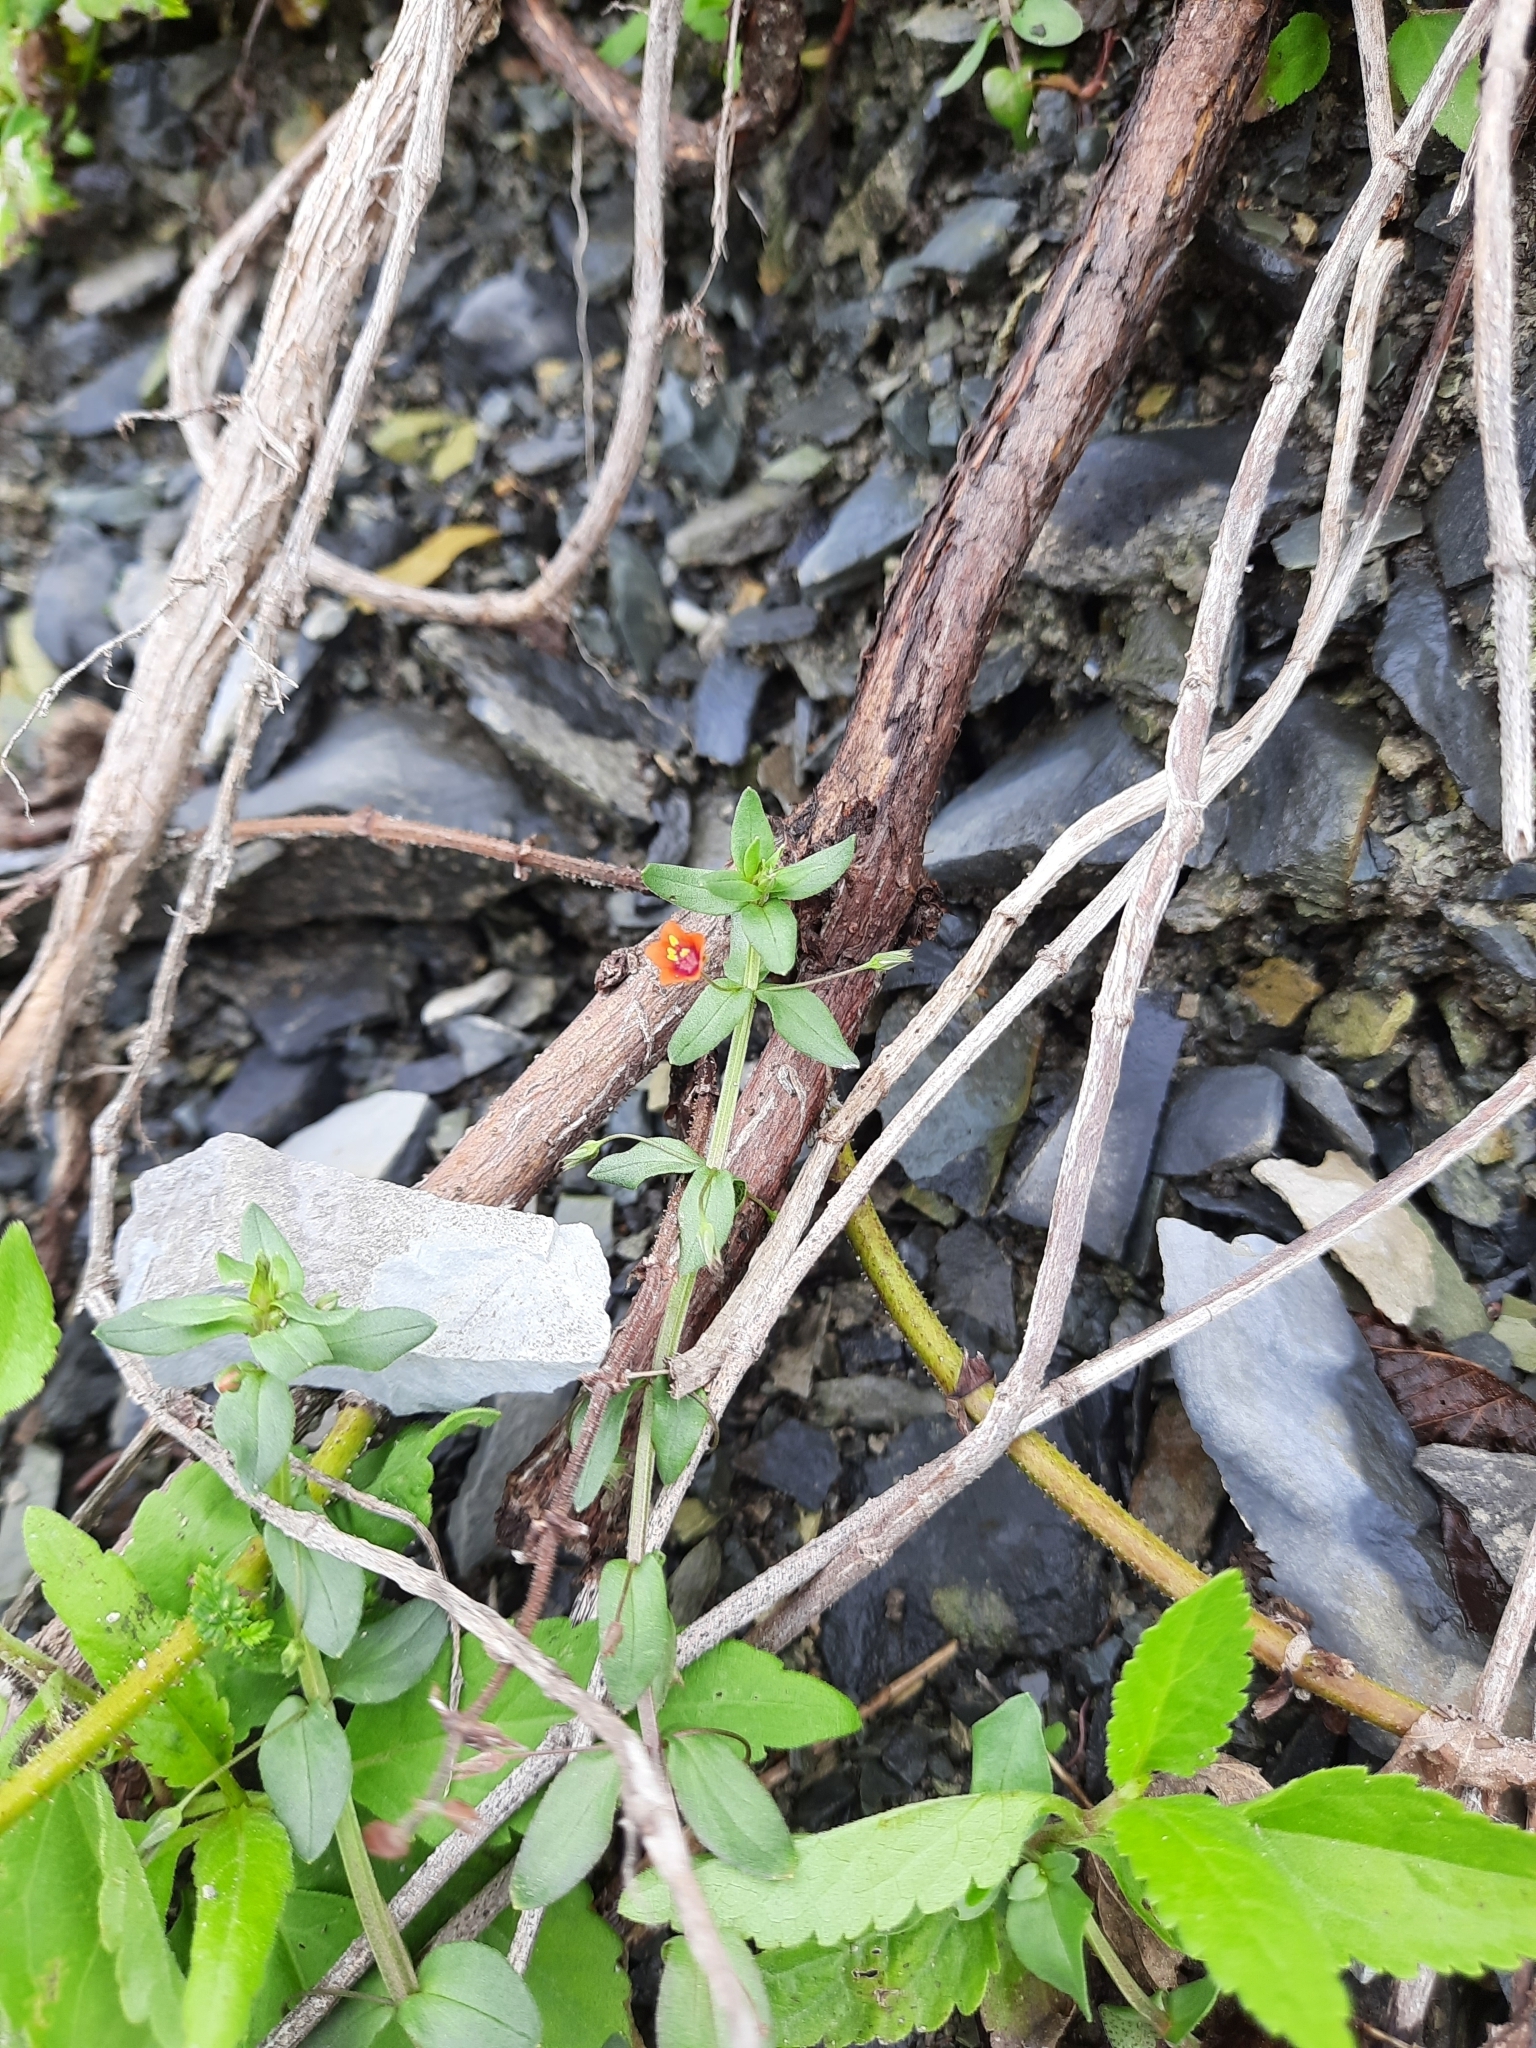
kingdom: Plantae
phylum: Tracheophyta
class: Magnoliopsida
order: Ericales
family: Primulaceae
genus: Lysimachia
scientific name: Lysimachia arvensis
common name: Scarlet pimpernel
